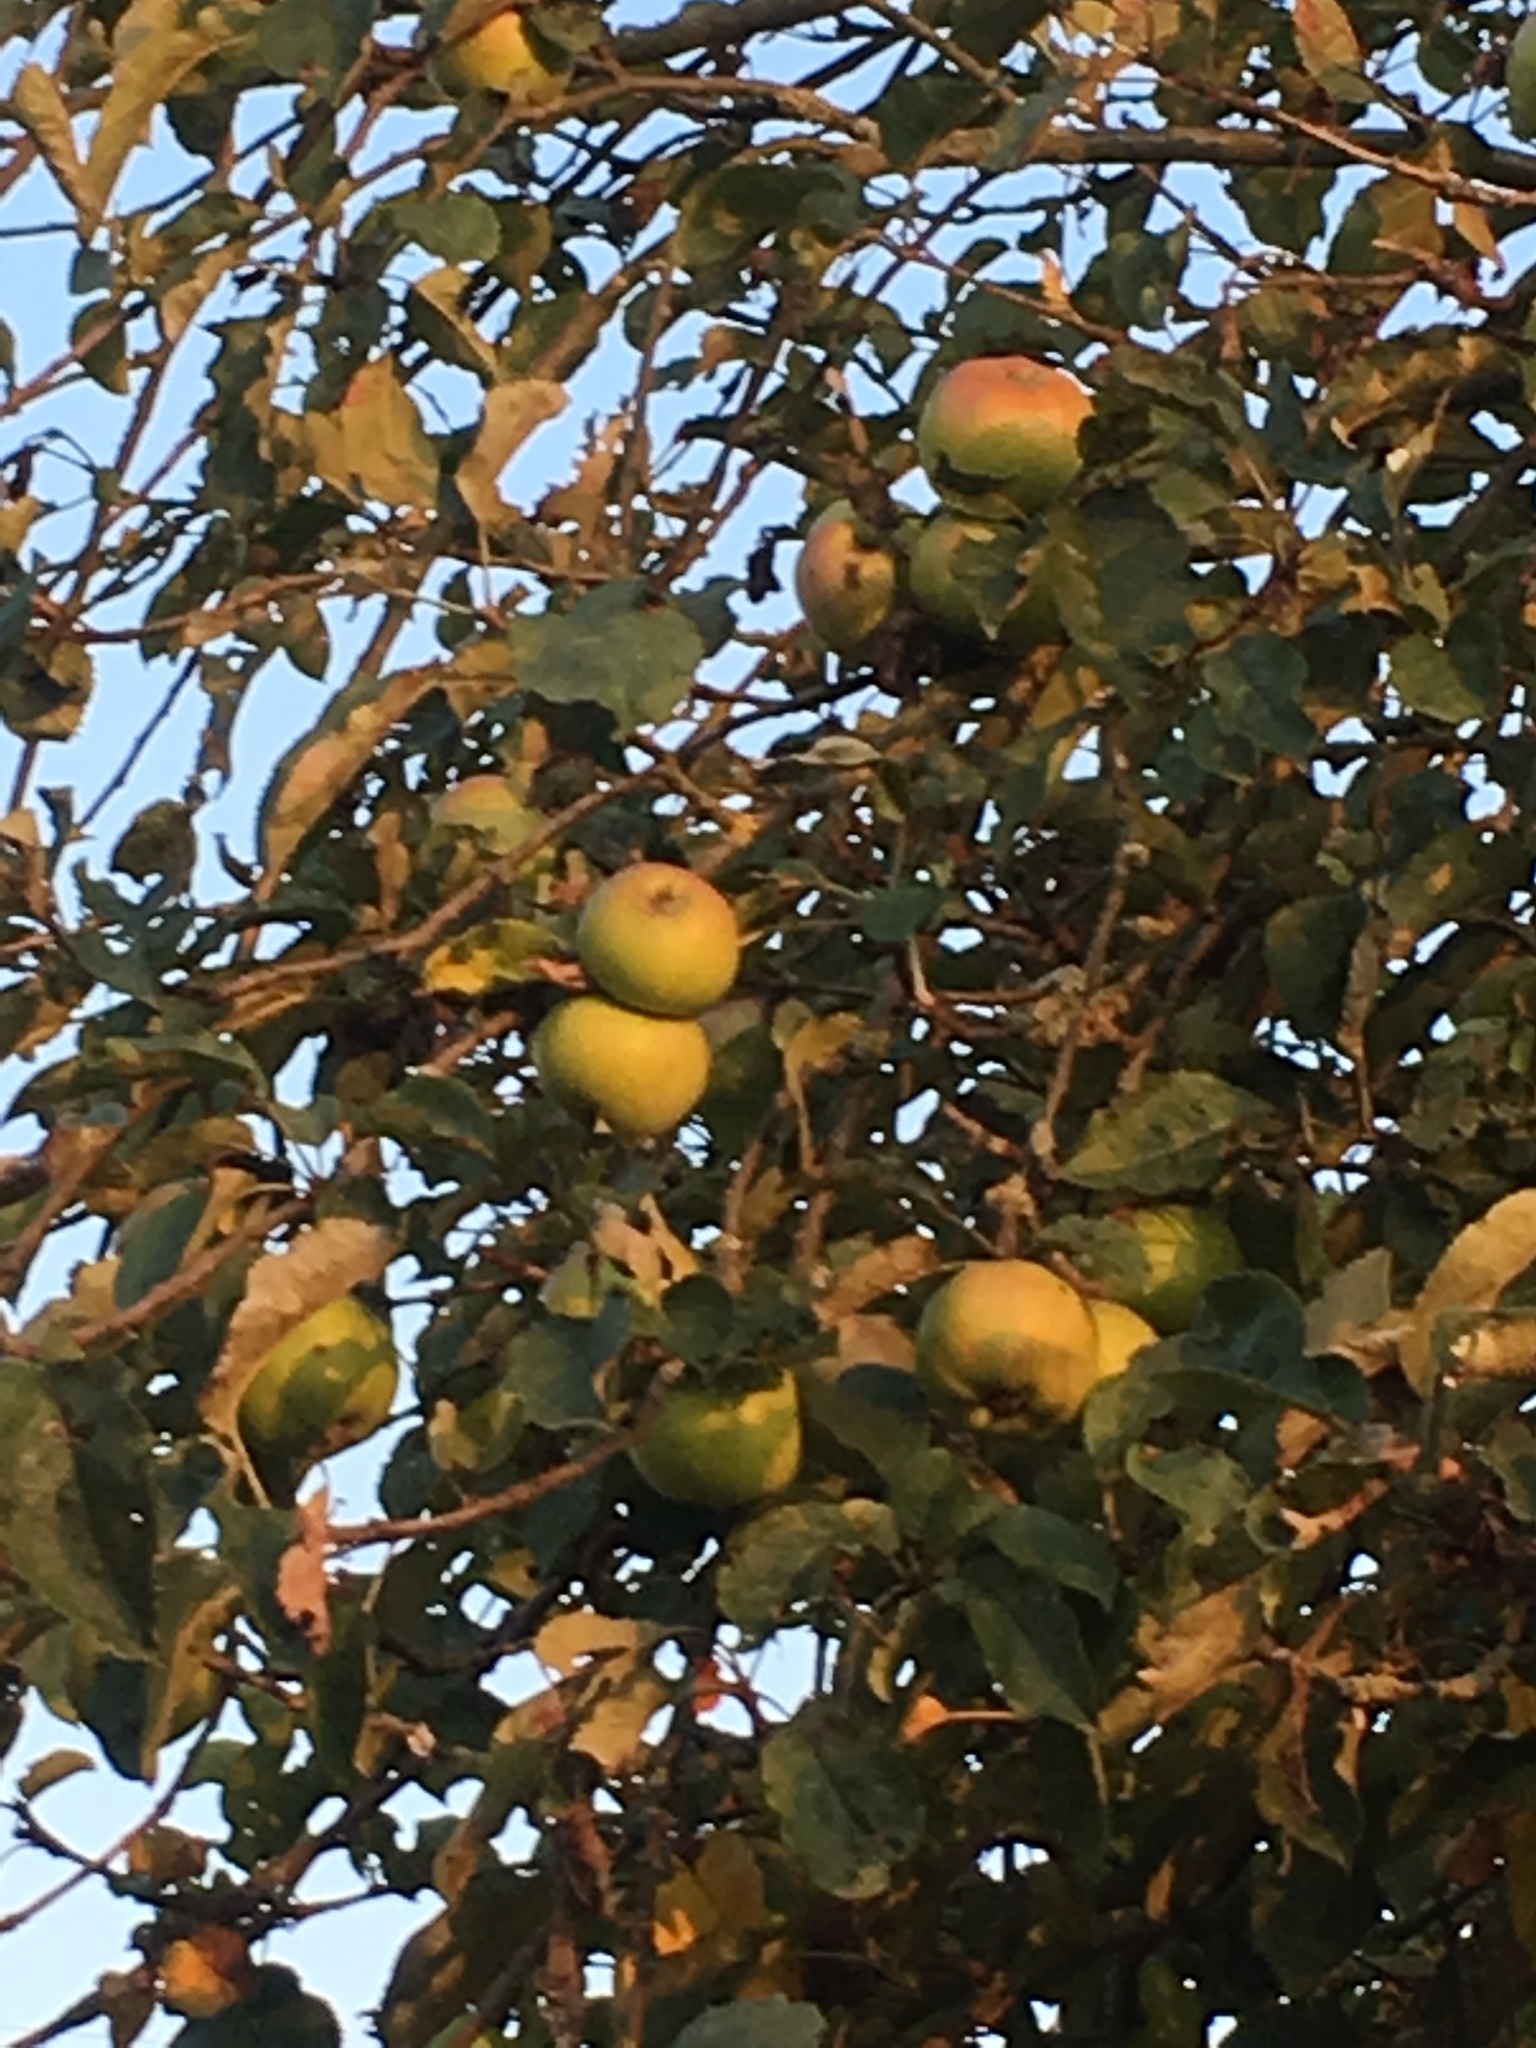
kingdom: Plantae
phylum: Tracheophyta
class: Magnoliopsida
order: Rosales
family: Rosaceae
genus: Malus
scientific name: Malus domestica
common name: Apple
